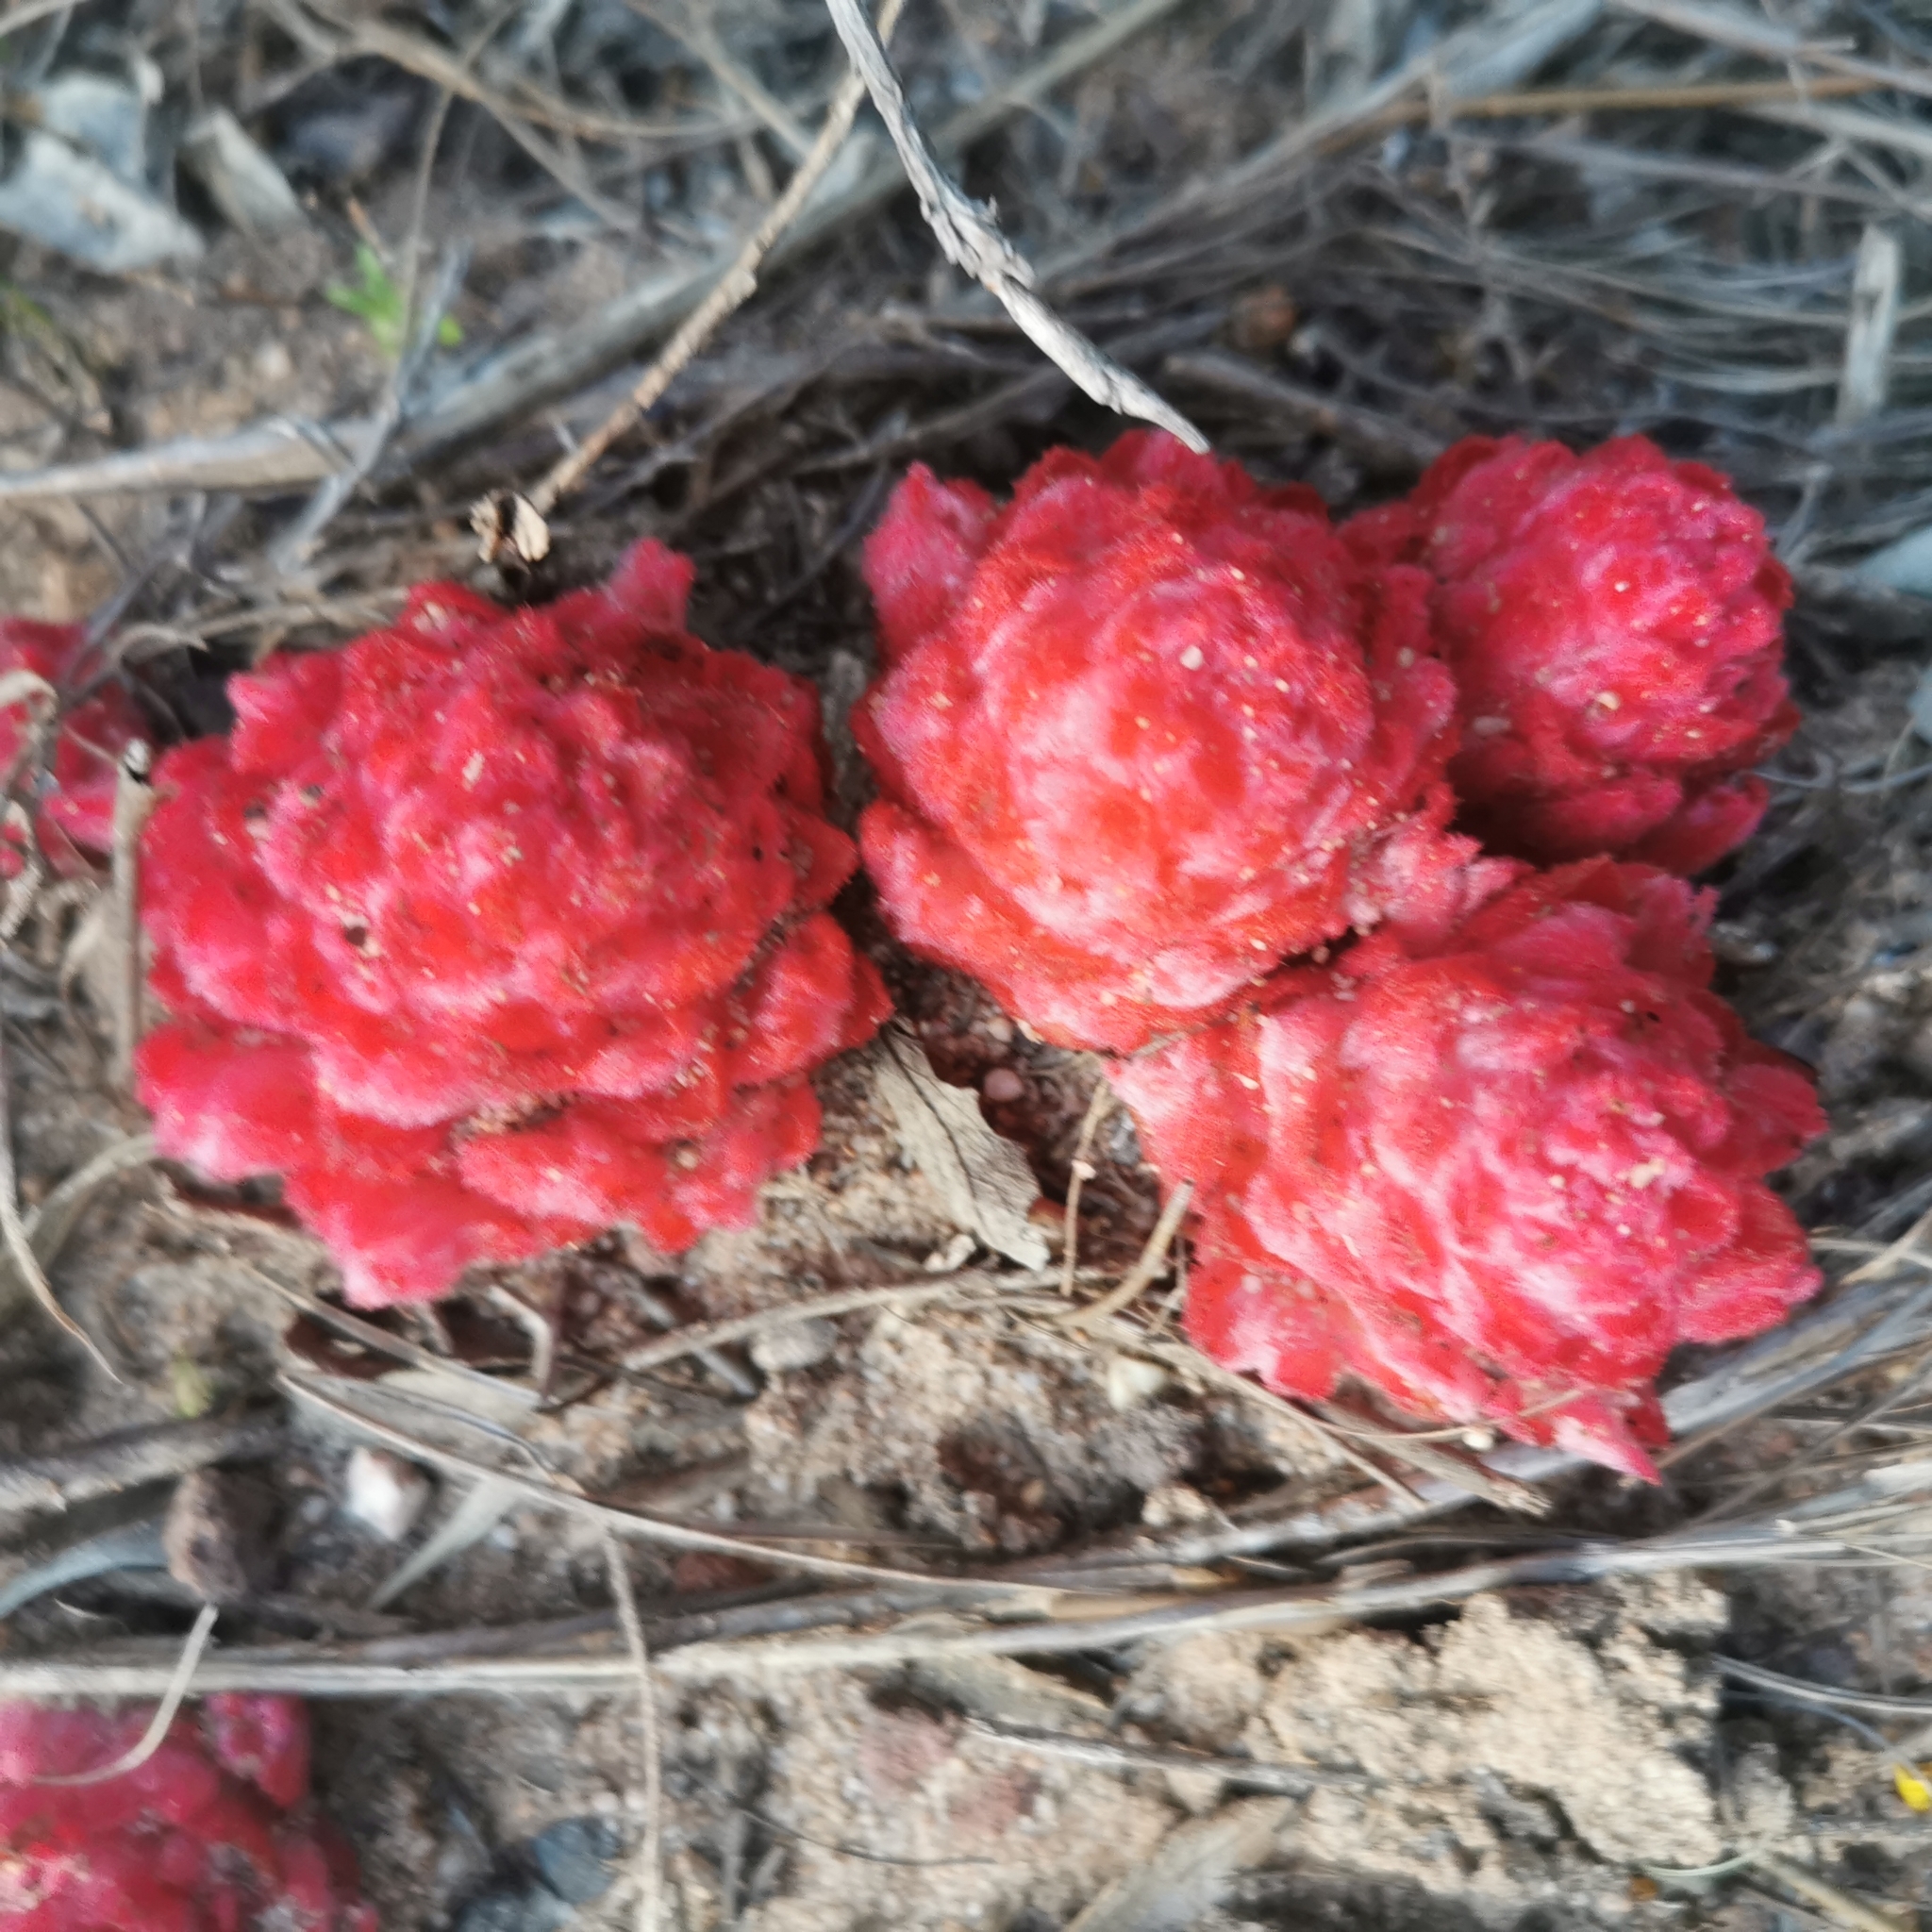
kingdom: Plantae
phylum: Tracheophyta
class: Magnoliopsida
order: Lamiales
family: Orobanchaceae
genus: Hyobanche
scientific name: Hyobanche sanguinea
